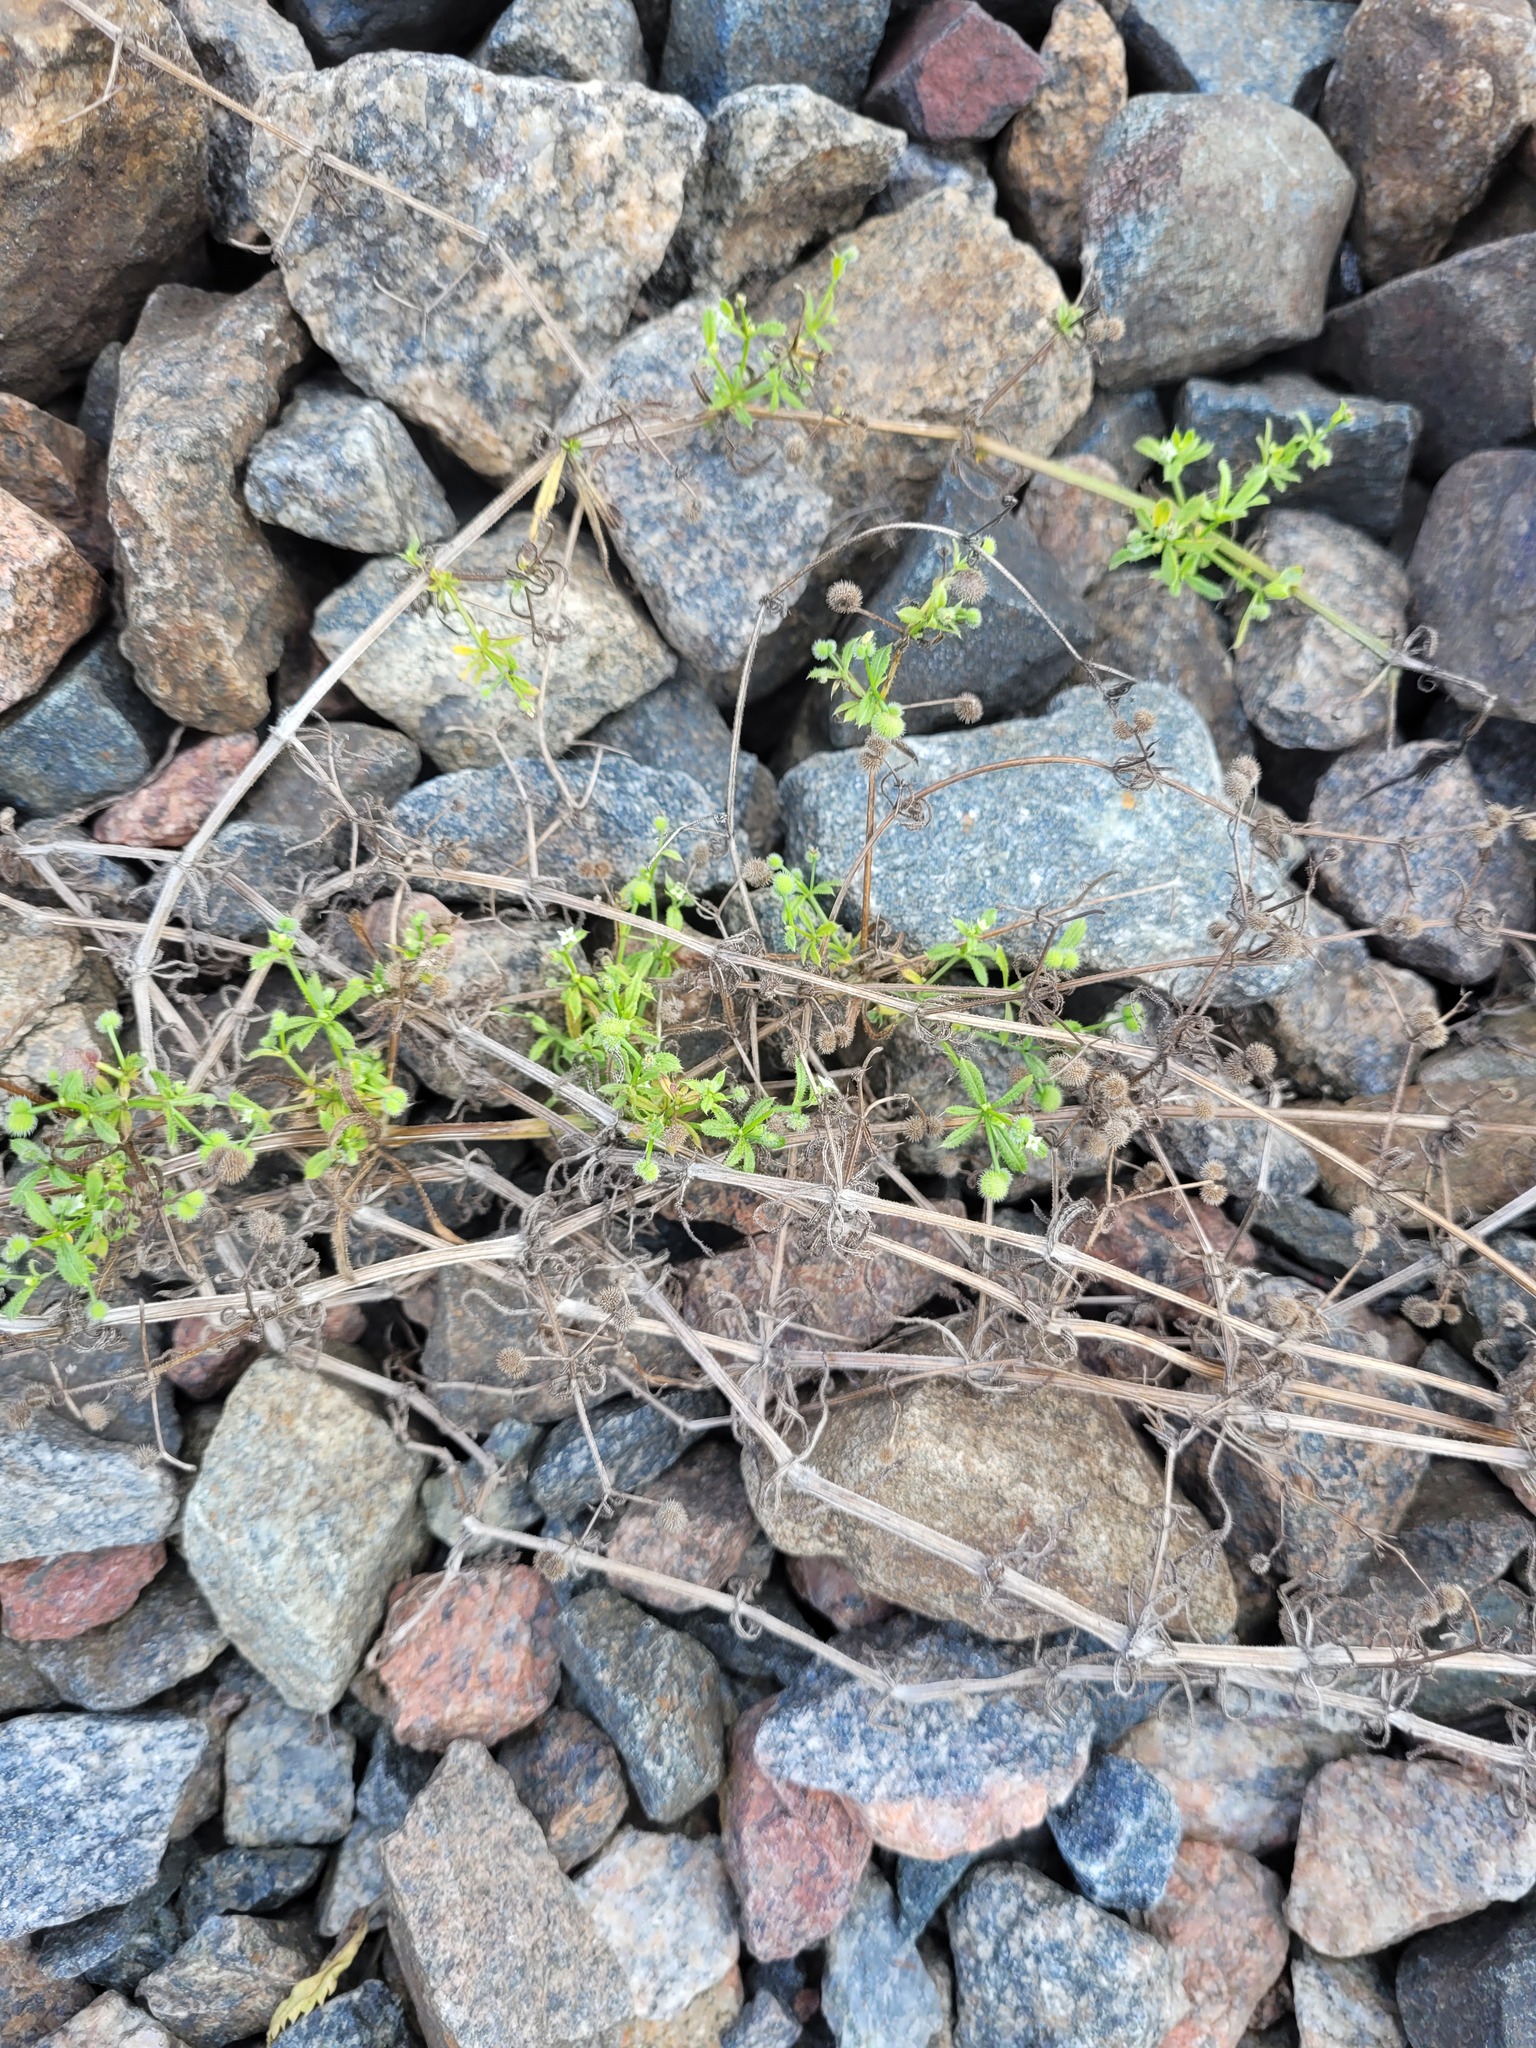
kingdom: Plantae
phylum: Tracheophyta
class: Magnoliopsida
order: Gentianales
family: Rubiaceae
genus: Galium
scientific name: Galium aparine
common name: Cleavers
